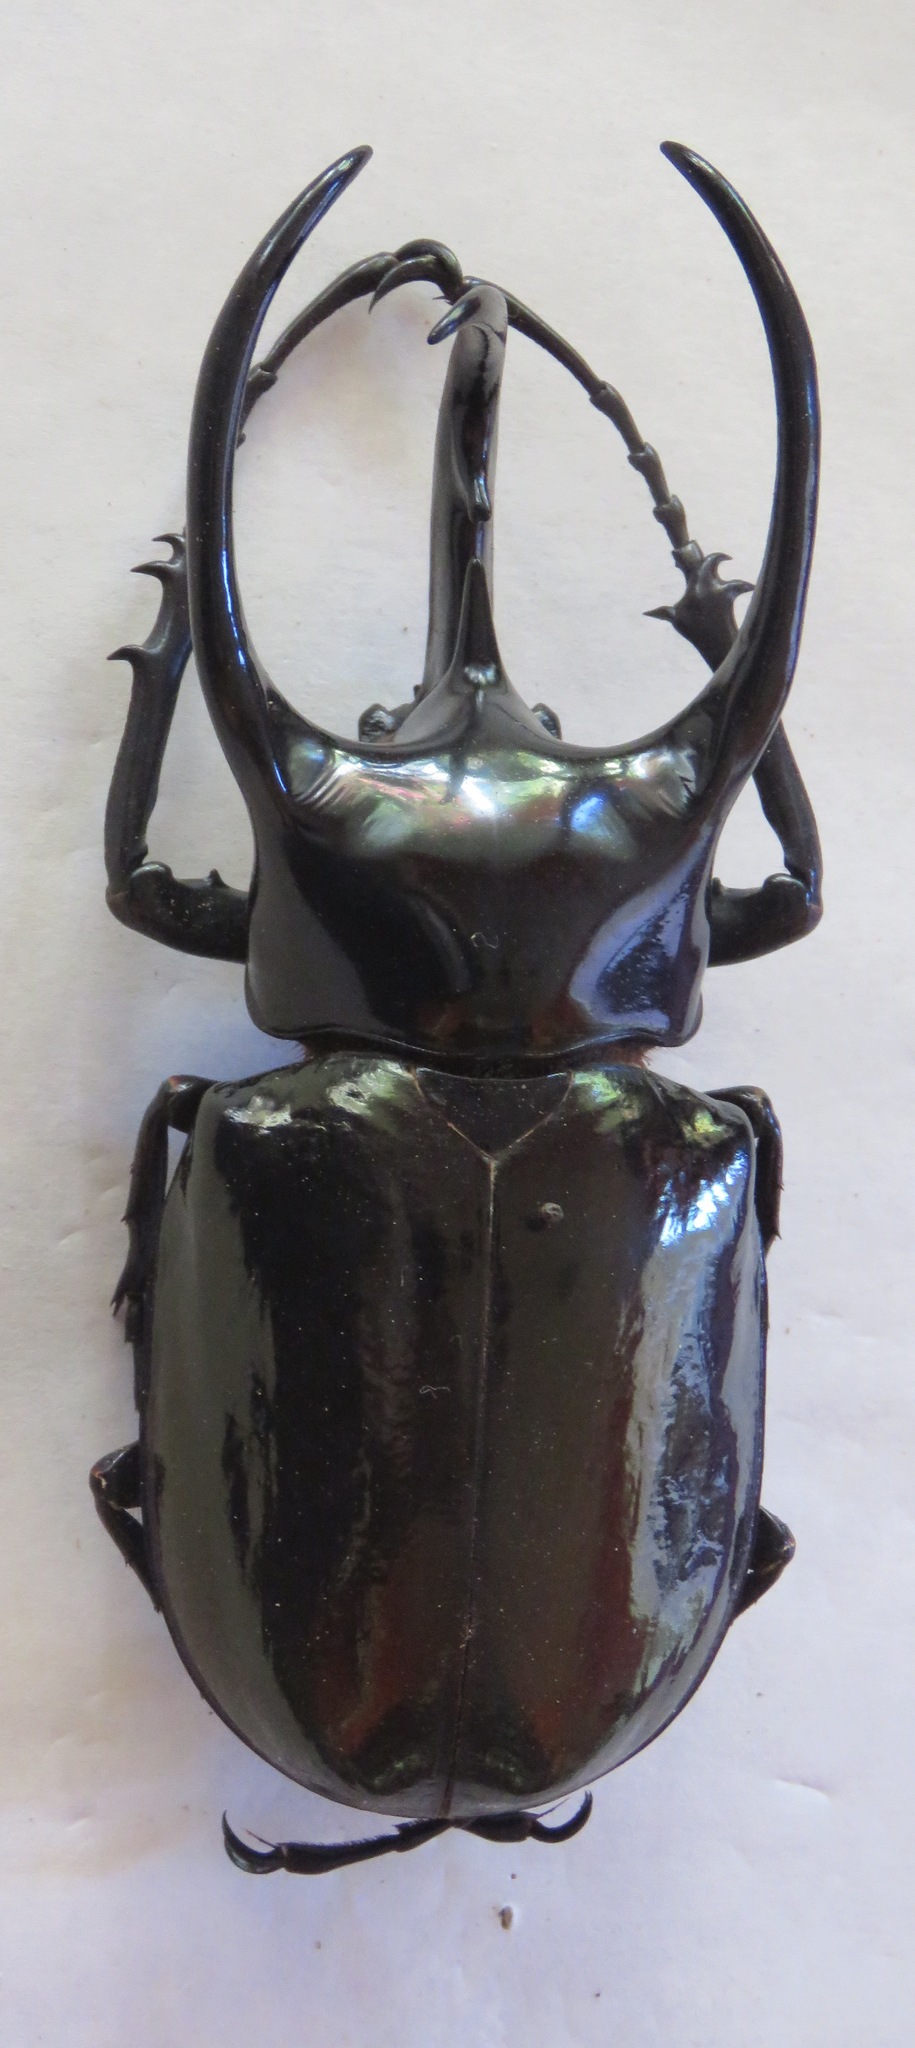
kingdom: Animalia
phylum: Arthropoda
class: Insecta
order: Coleoptera
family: Scarabaeidae
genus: Chalcosoma
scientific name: Chalcosoma chiron
